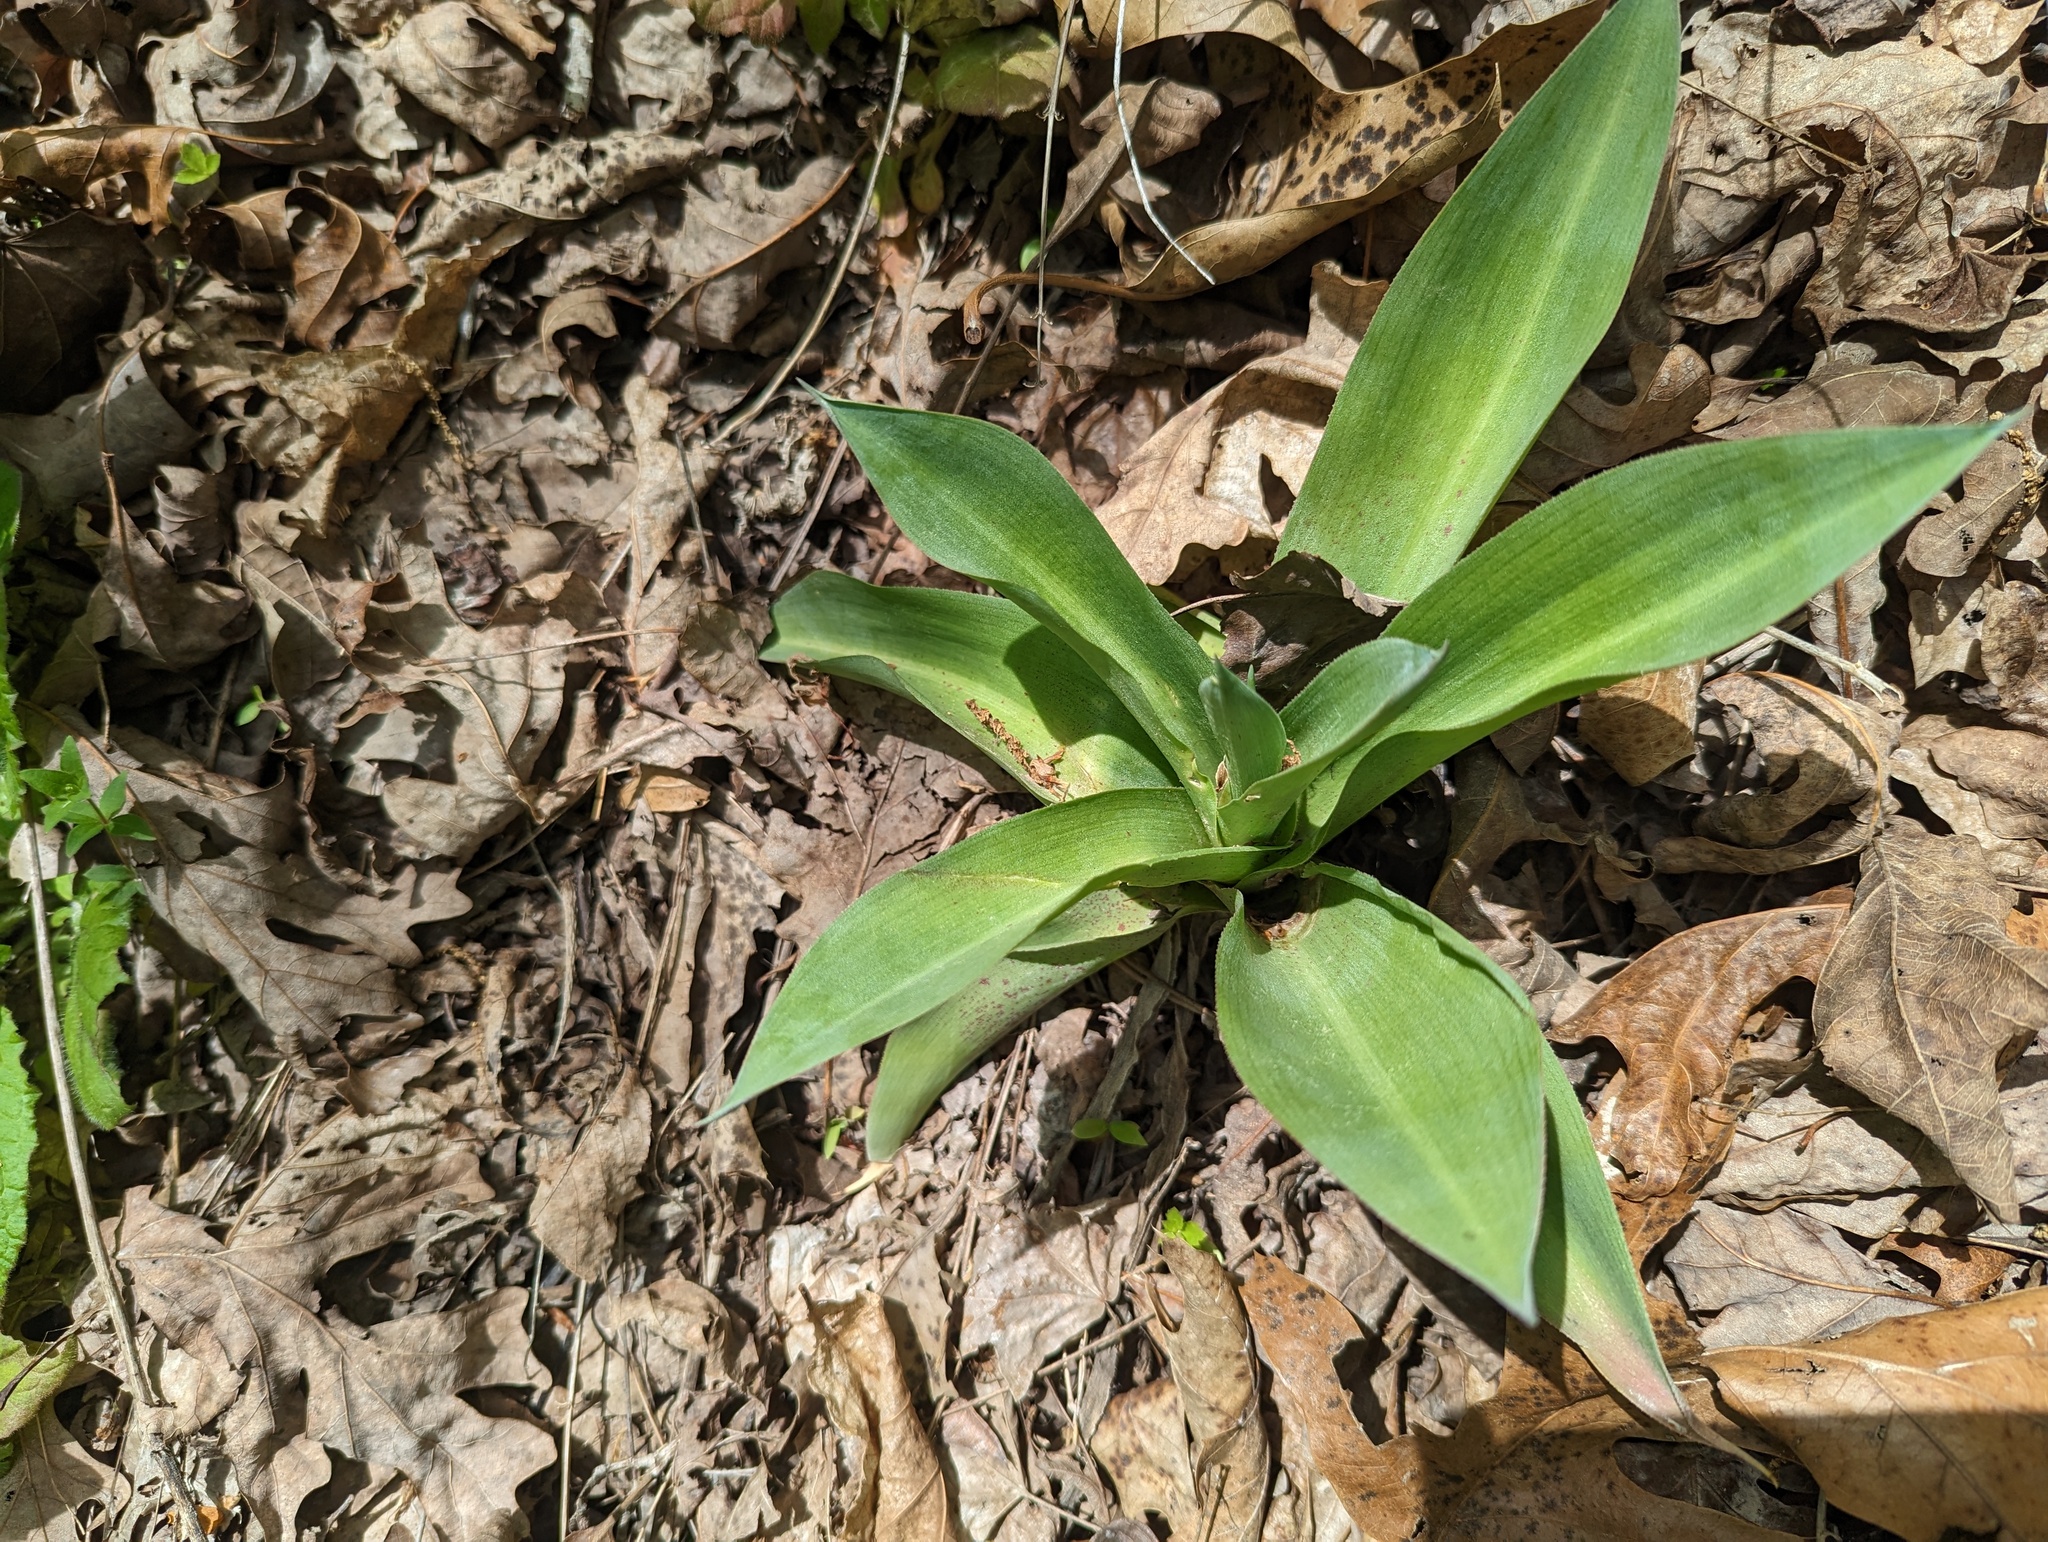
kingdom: Plantae
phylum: Tracheophyta
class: Liliopsida
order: Asparagales
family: Asparagaceae
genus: Agave
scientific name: Agave virginica
